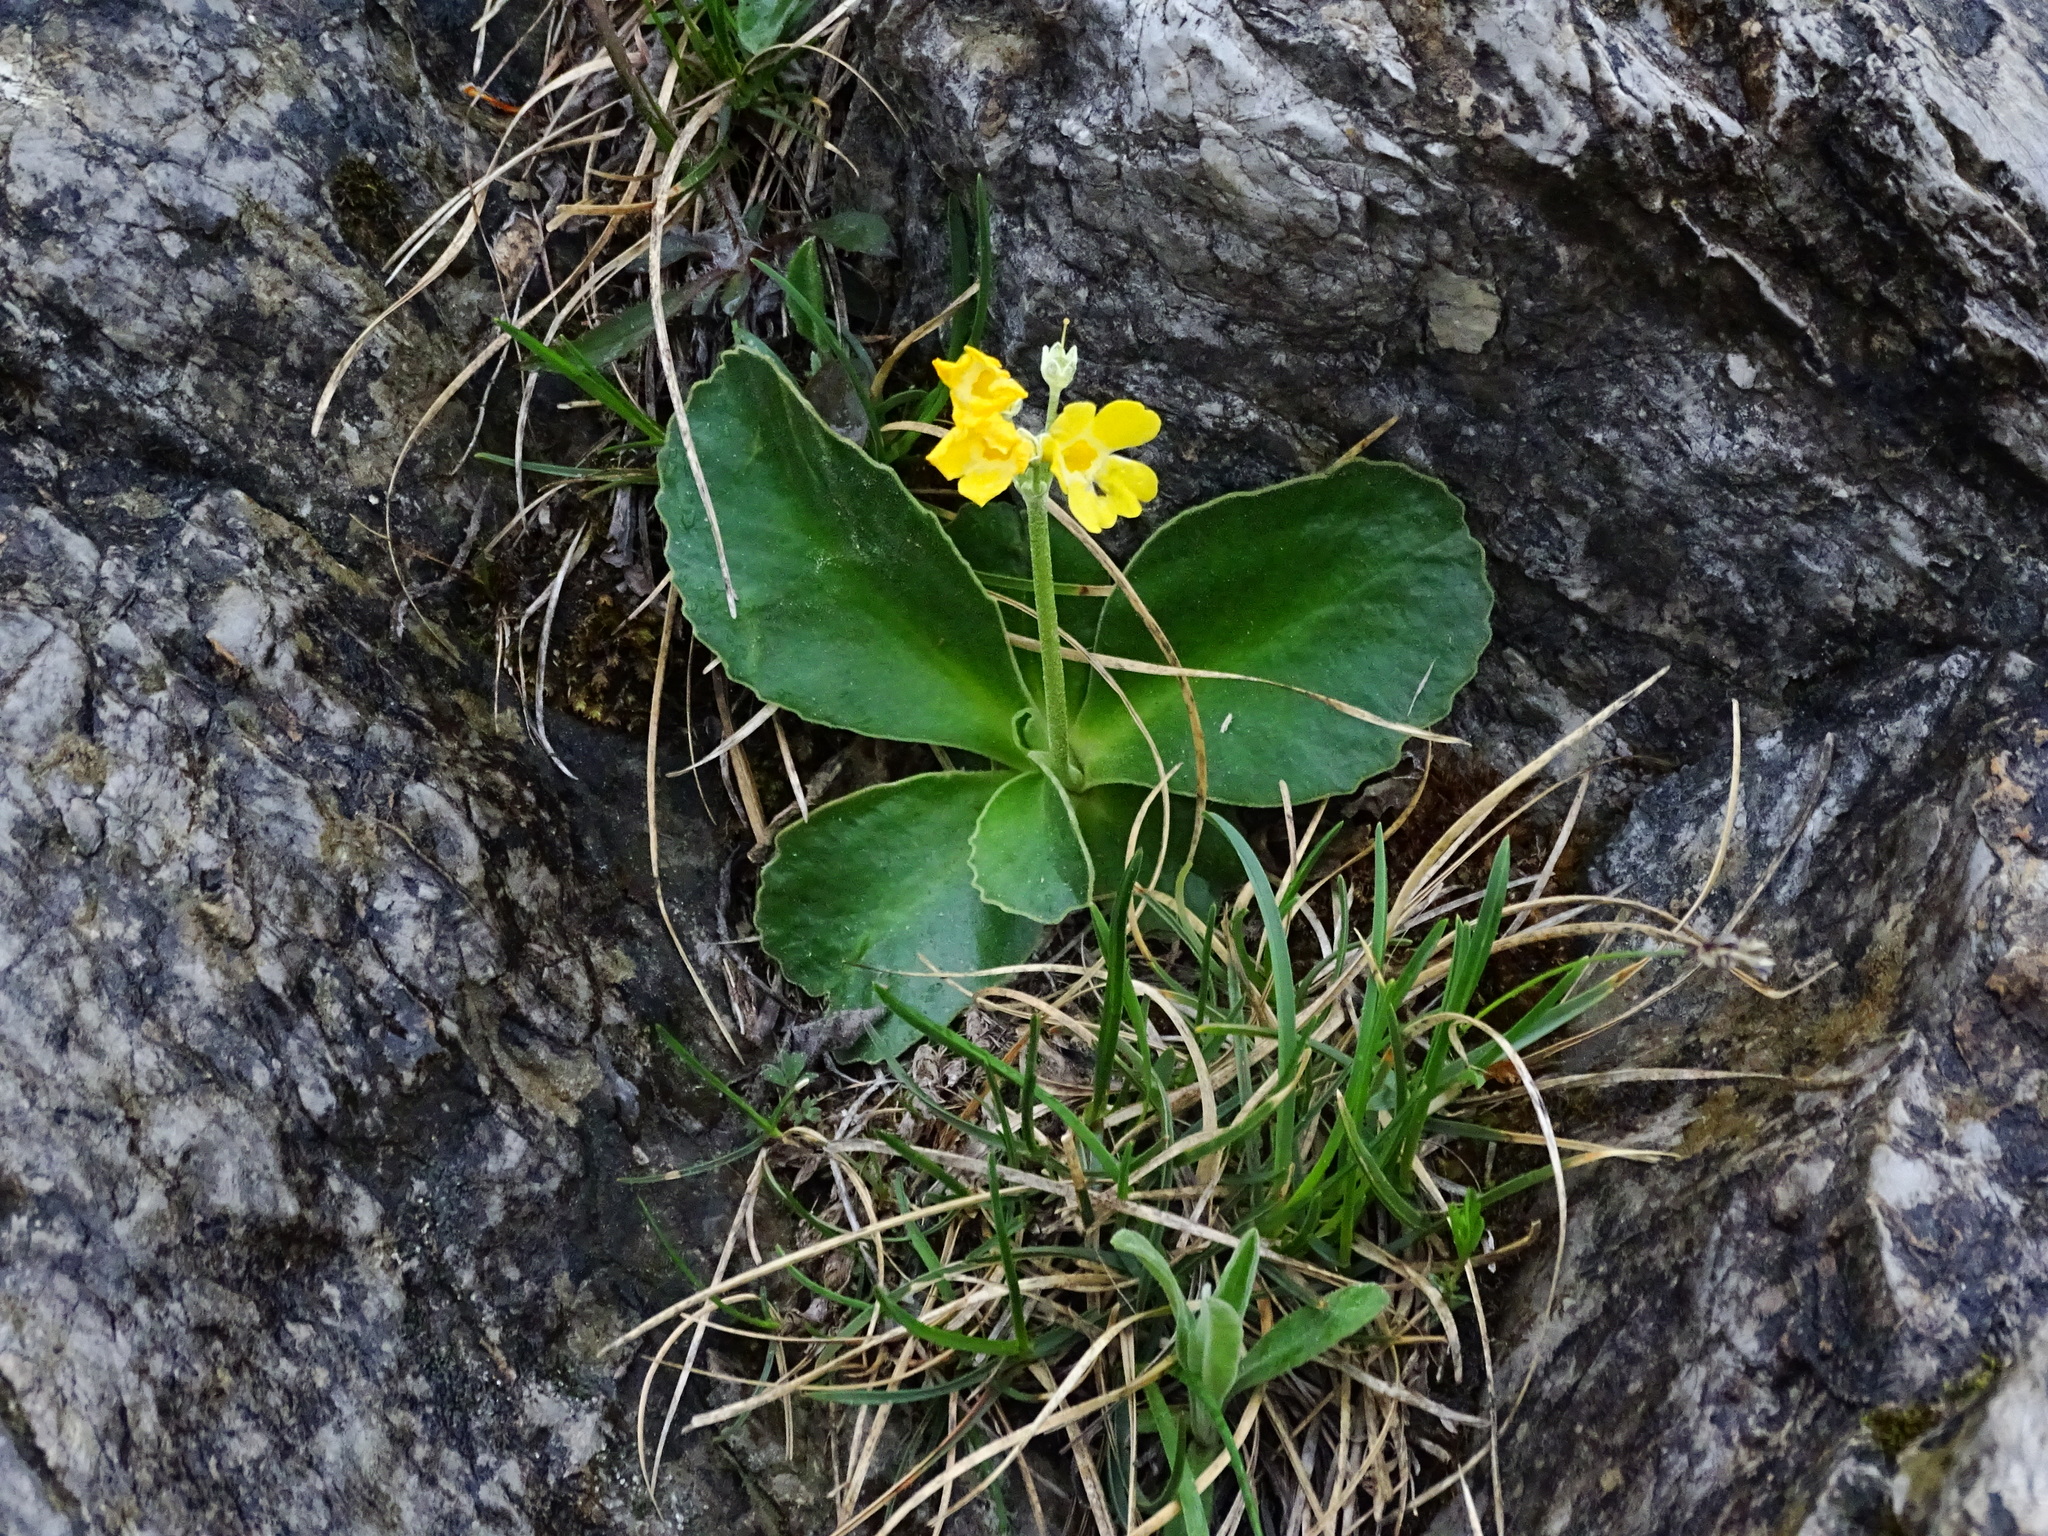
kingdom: Plantae
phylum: Tracheophyta
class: Magnoliopsida
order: Ericales
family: Primulaceae
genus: Primula
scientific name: Primula auricula
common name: Auricula
